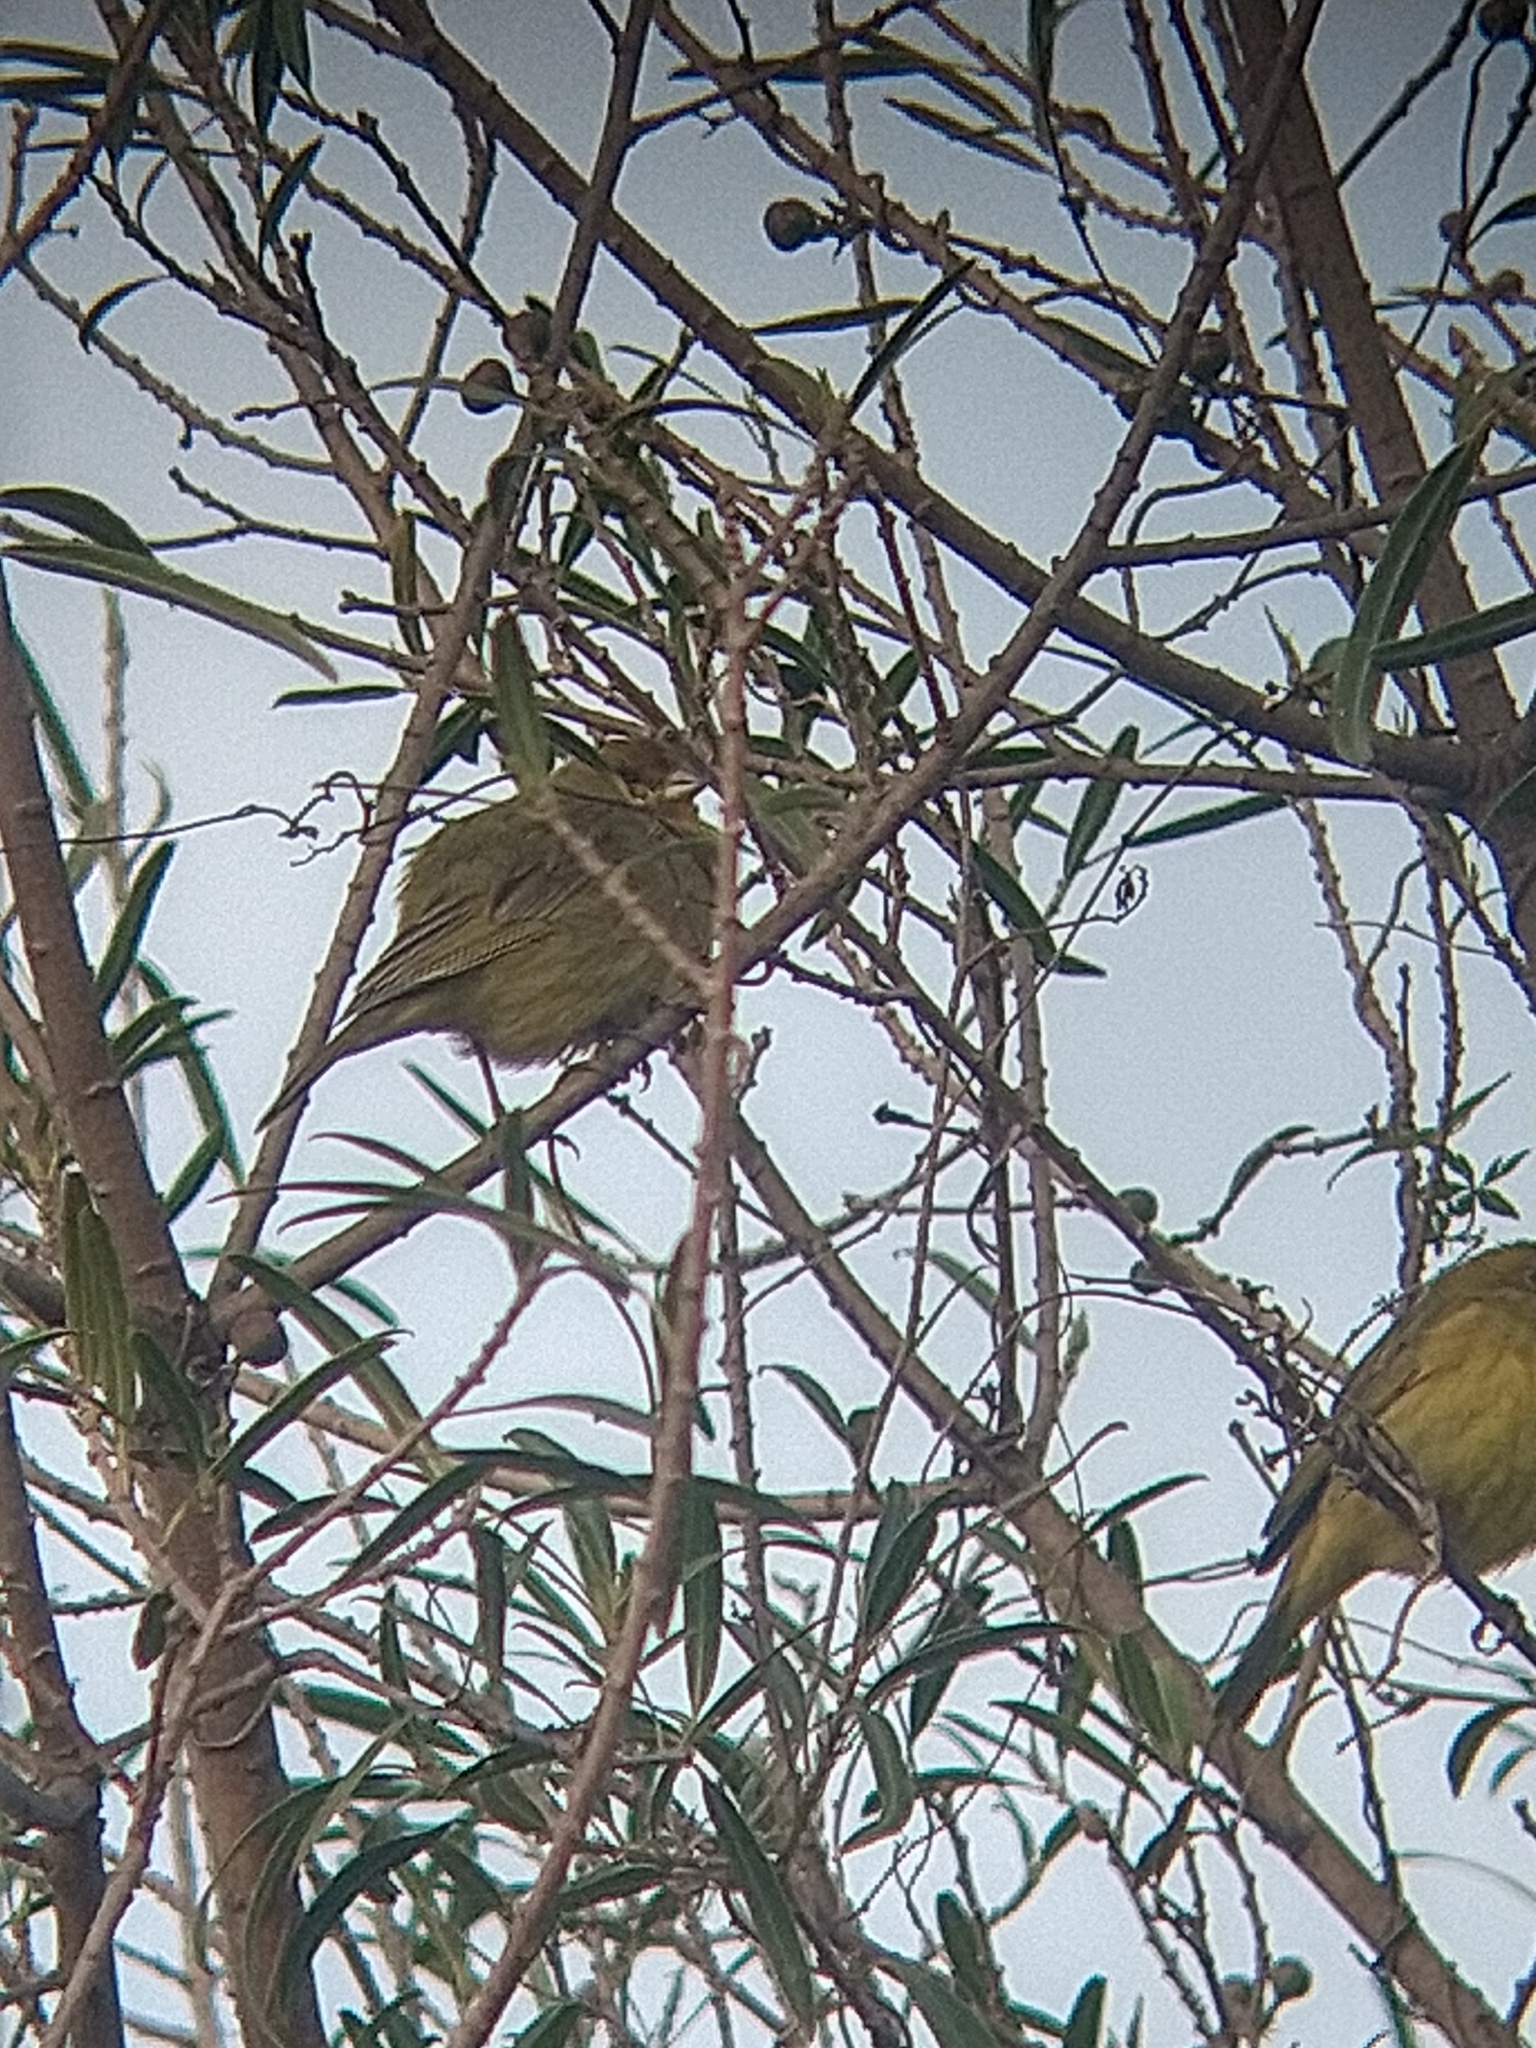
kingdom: Animalia
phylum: Chordata
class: Aves
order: Passeriformes
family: Thraupidae
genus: Sicalis
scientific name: Sicalis flaveola
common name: Saffron finch
